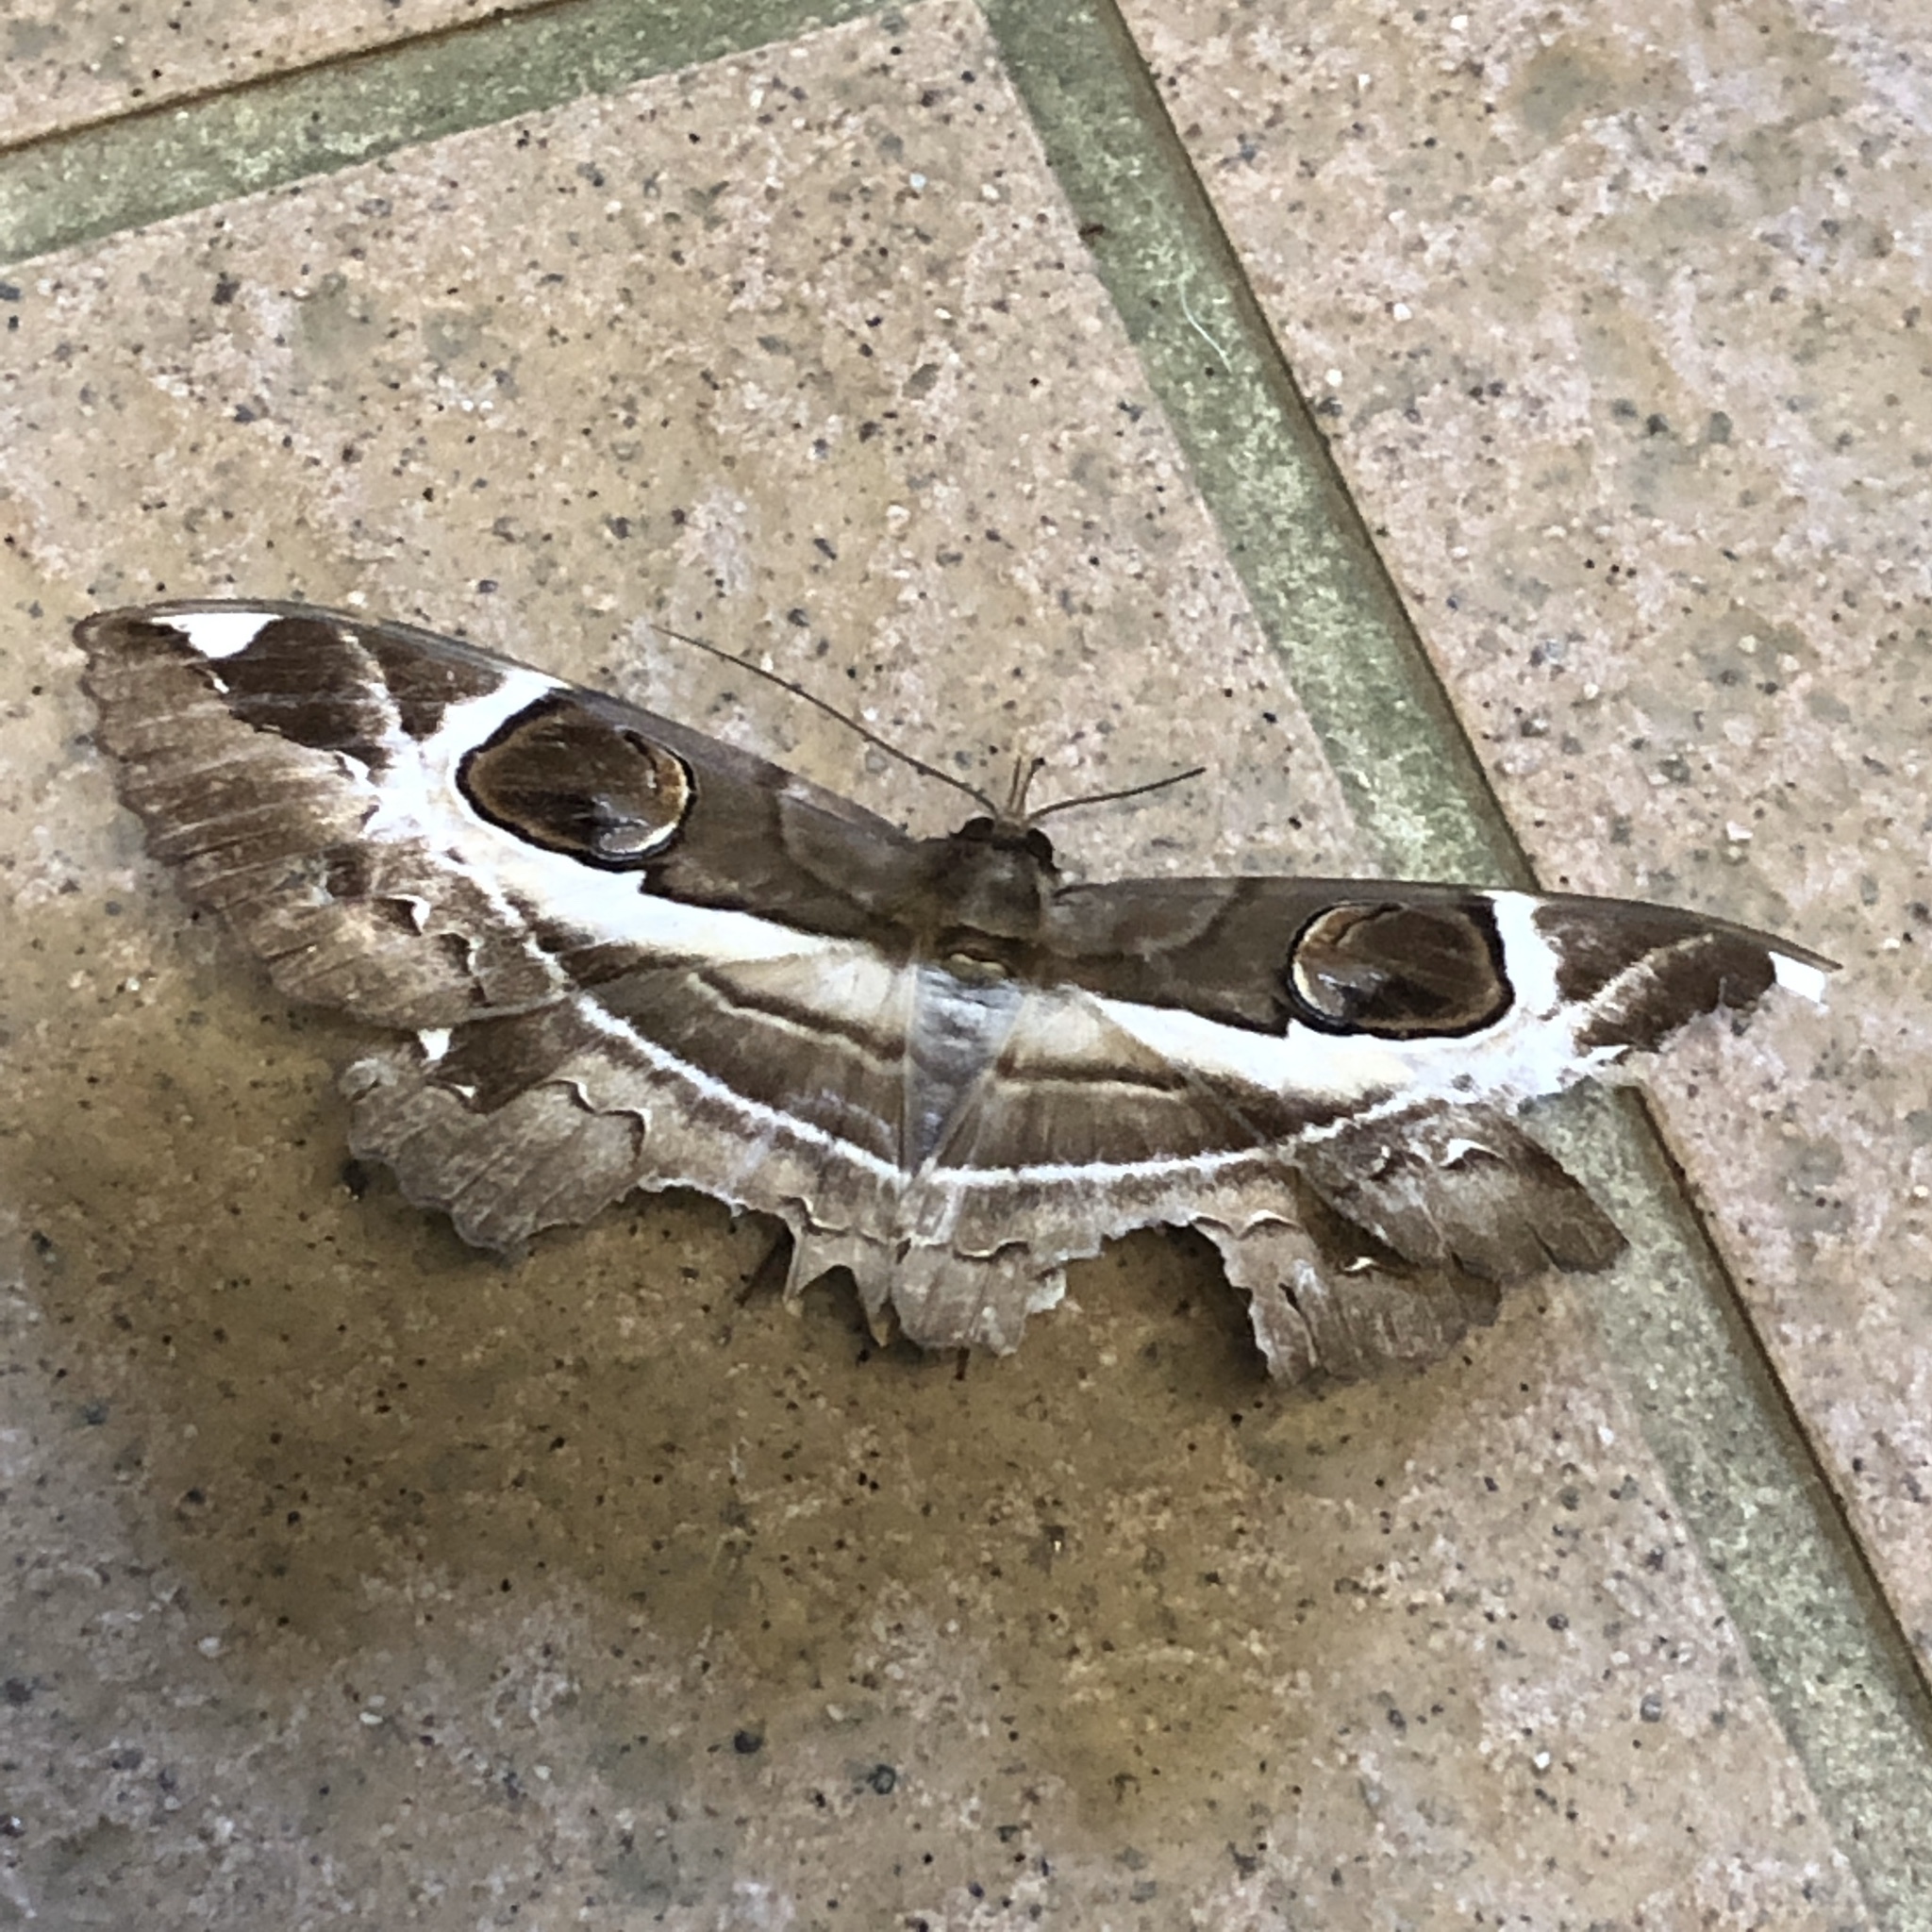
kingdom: Animalia
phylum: Arthropoda
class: Insecta
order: Lepidoptera
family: Erebidae
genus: Erebus
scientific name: Erebus ephesperis
